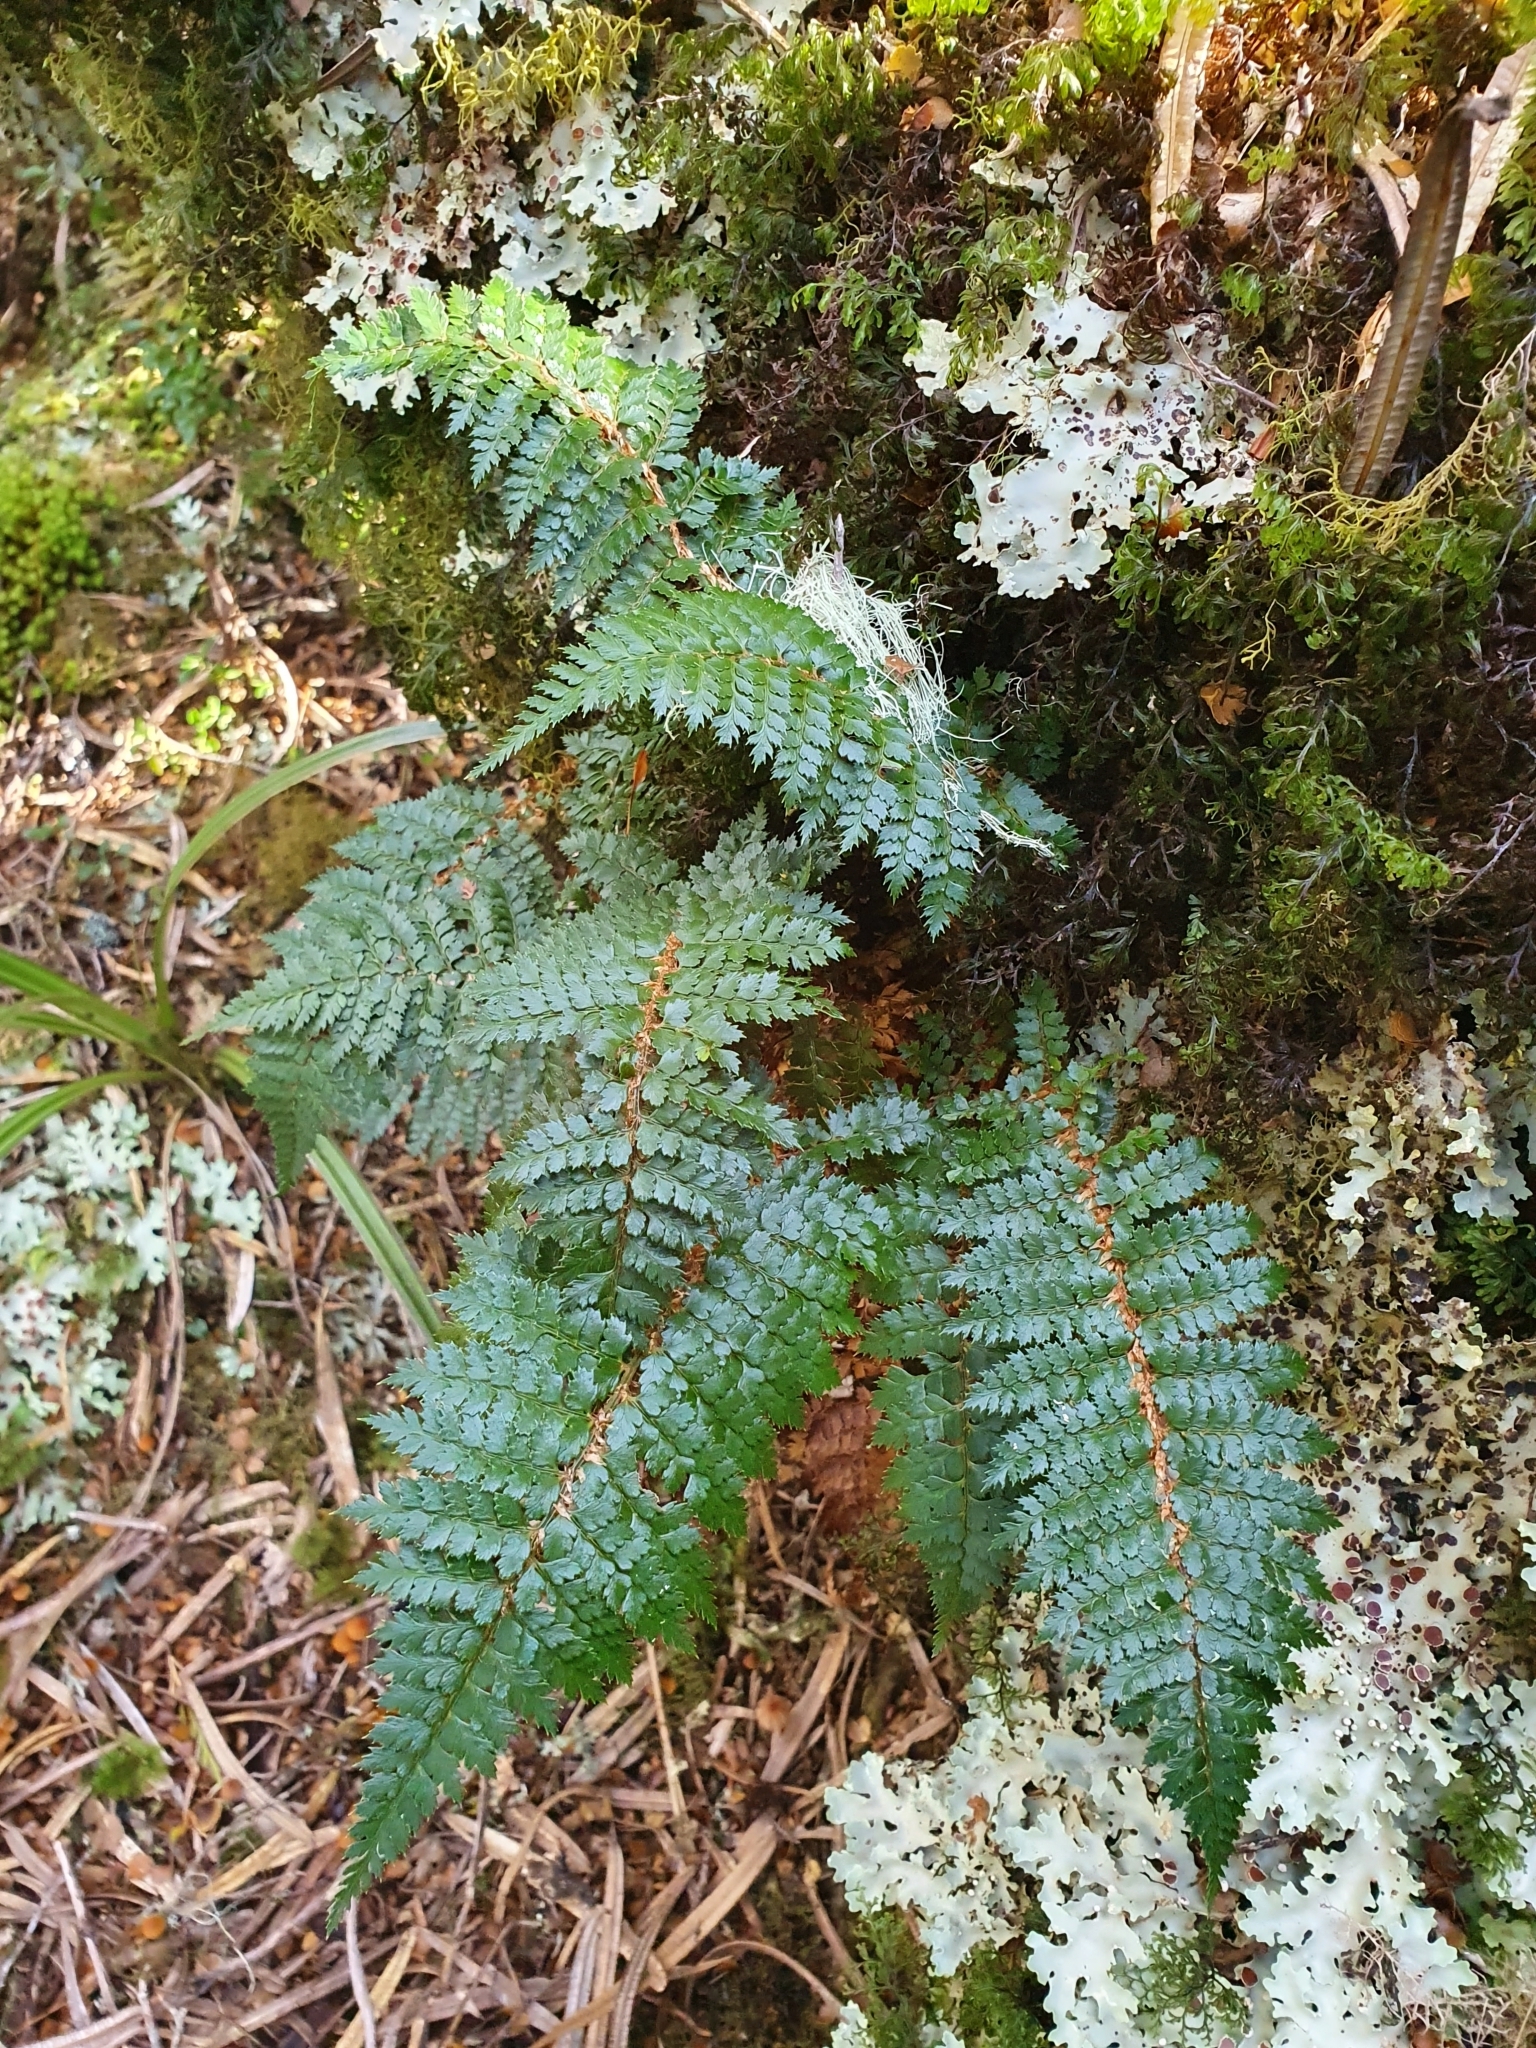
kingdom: Plantae
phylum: Tracheophyta
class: Polypodiopsida
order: Polypodiales
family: Dryopteridaceae
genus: Polystichum
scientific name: Polystichum vestitum
